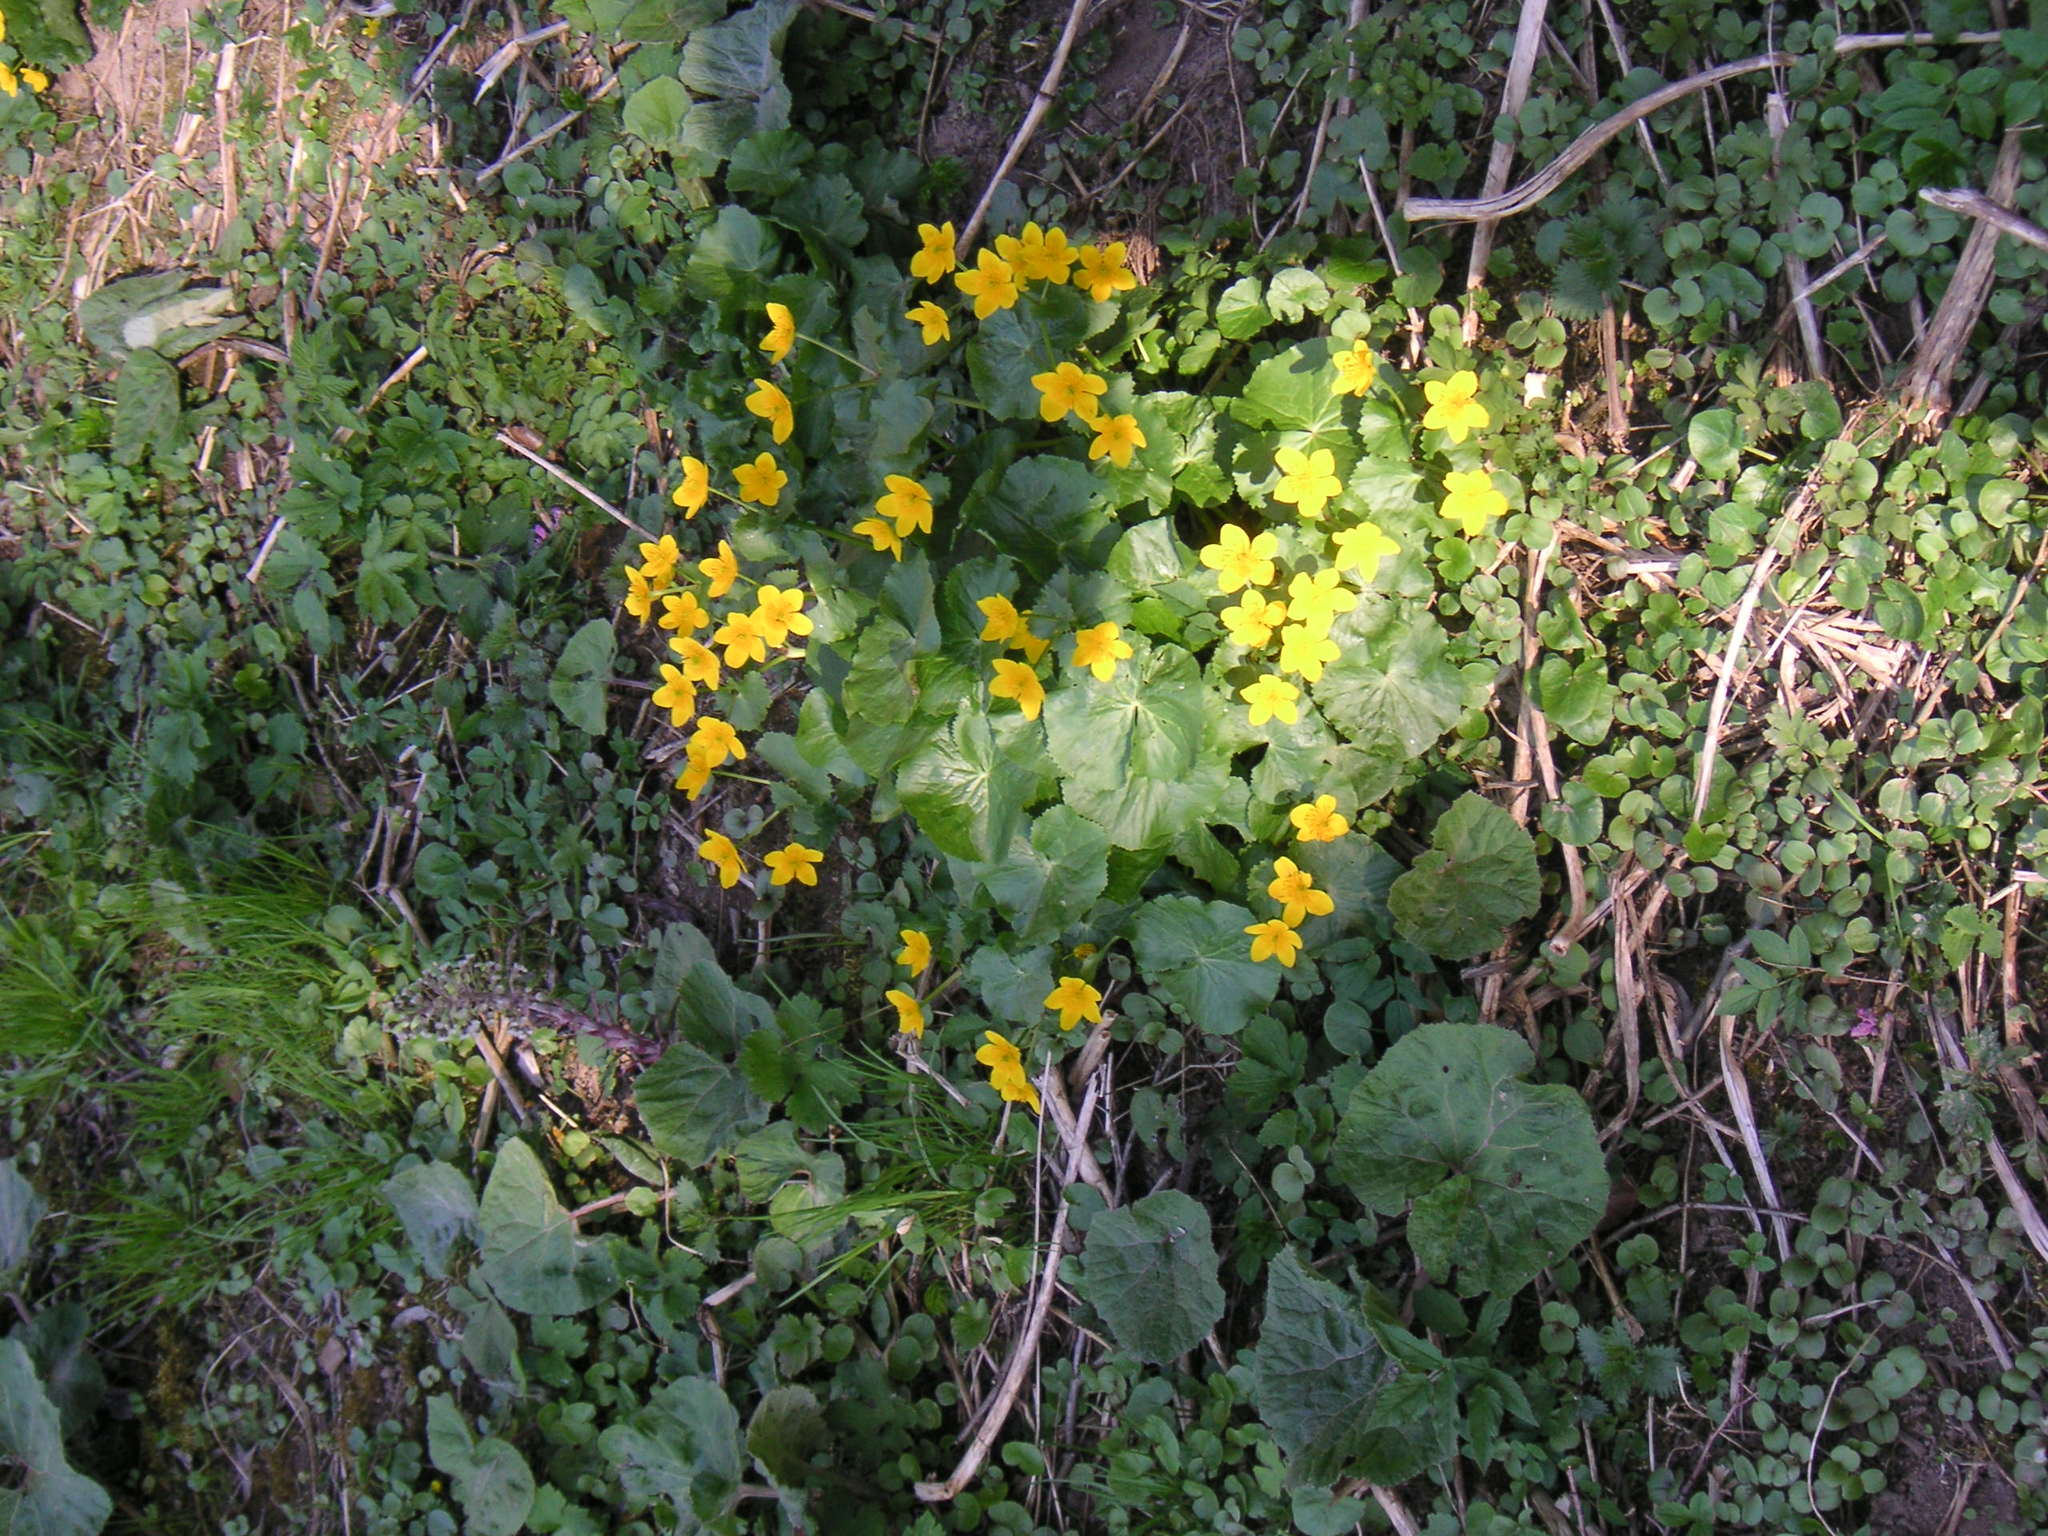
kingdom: Plantae
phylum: Tracheophyta
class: Magnoliopsida
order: Ranunculales
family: Ranunculaceae
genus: Caltha
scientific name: Caltha palustris
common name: Marsh marigold
